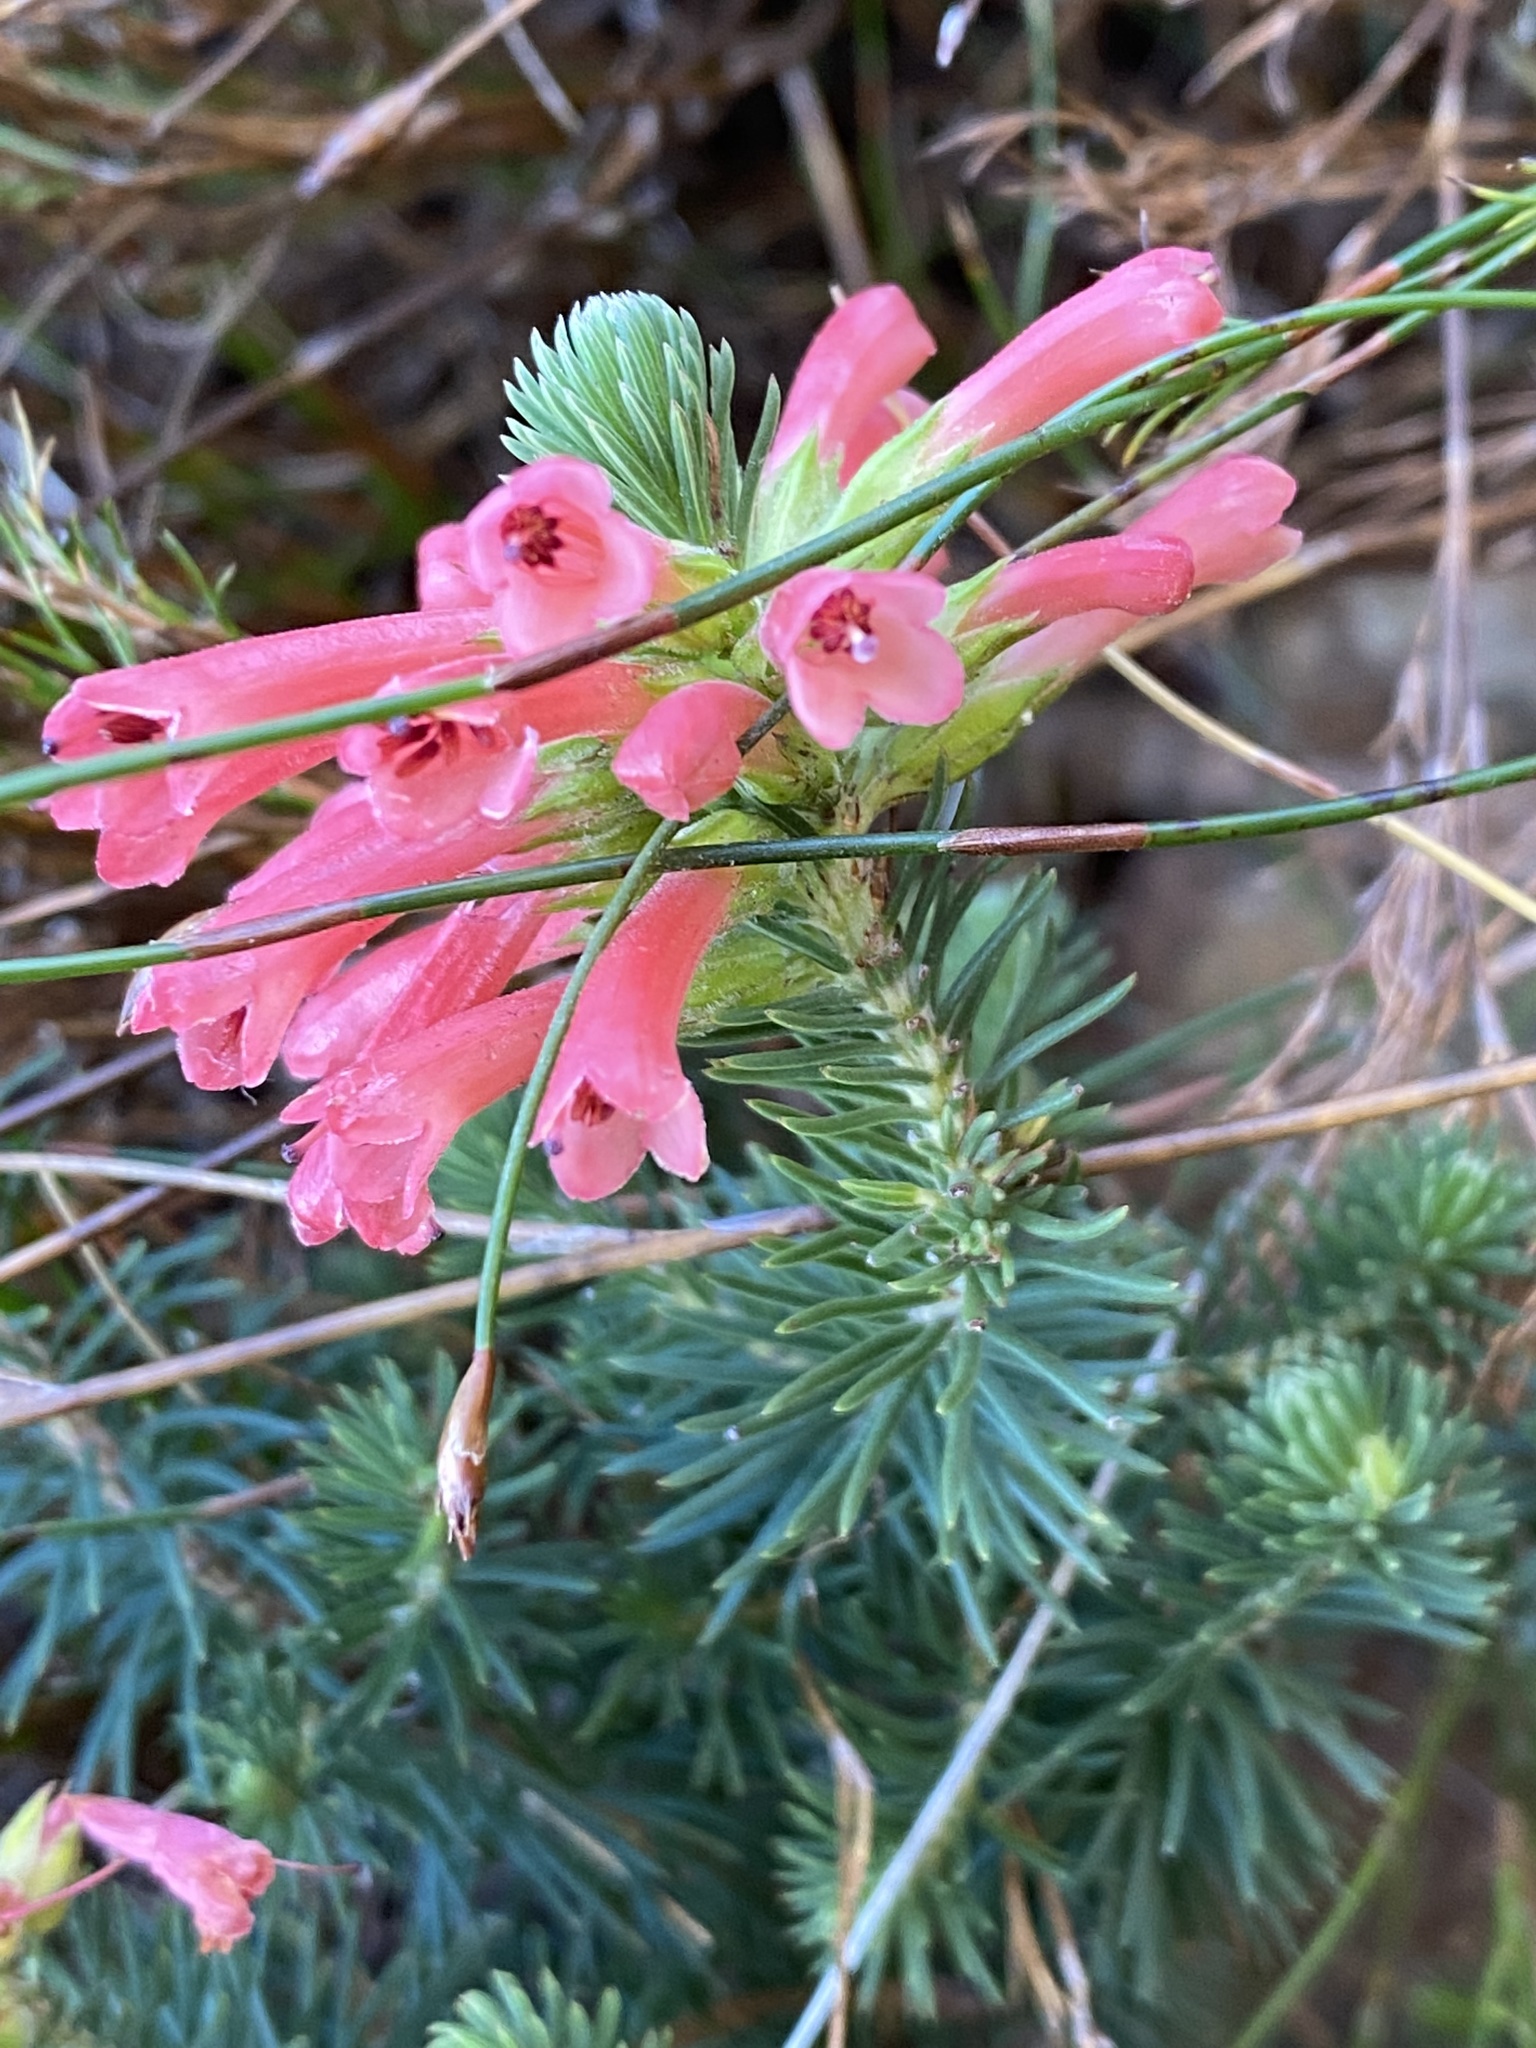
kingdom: Plantae
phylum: Tracheophyta
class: Magnoliopsida
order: Ericales
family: Ericaceae
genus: Erica
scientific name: Erica abietina
